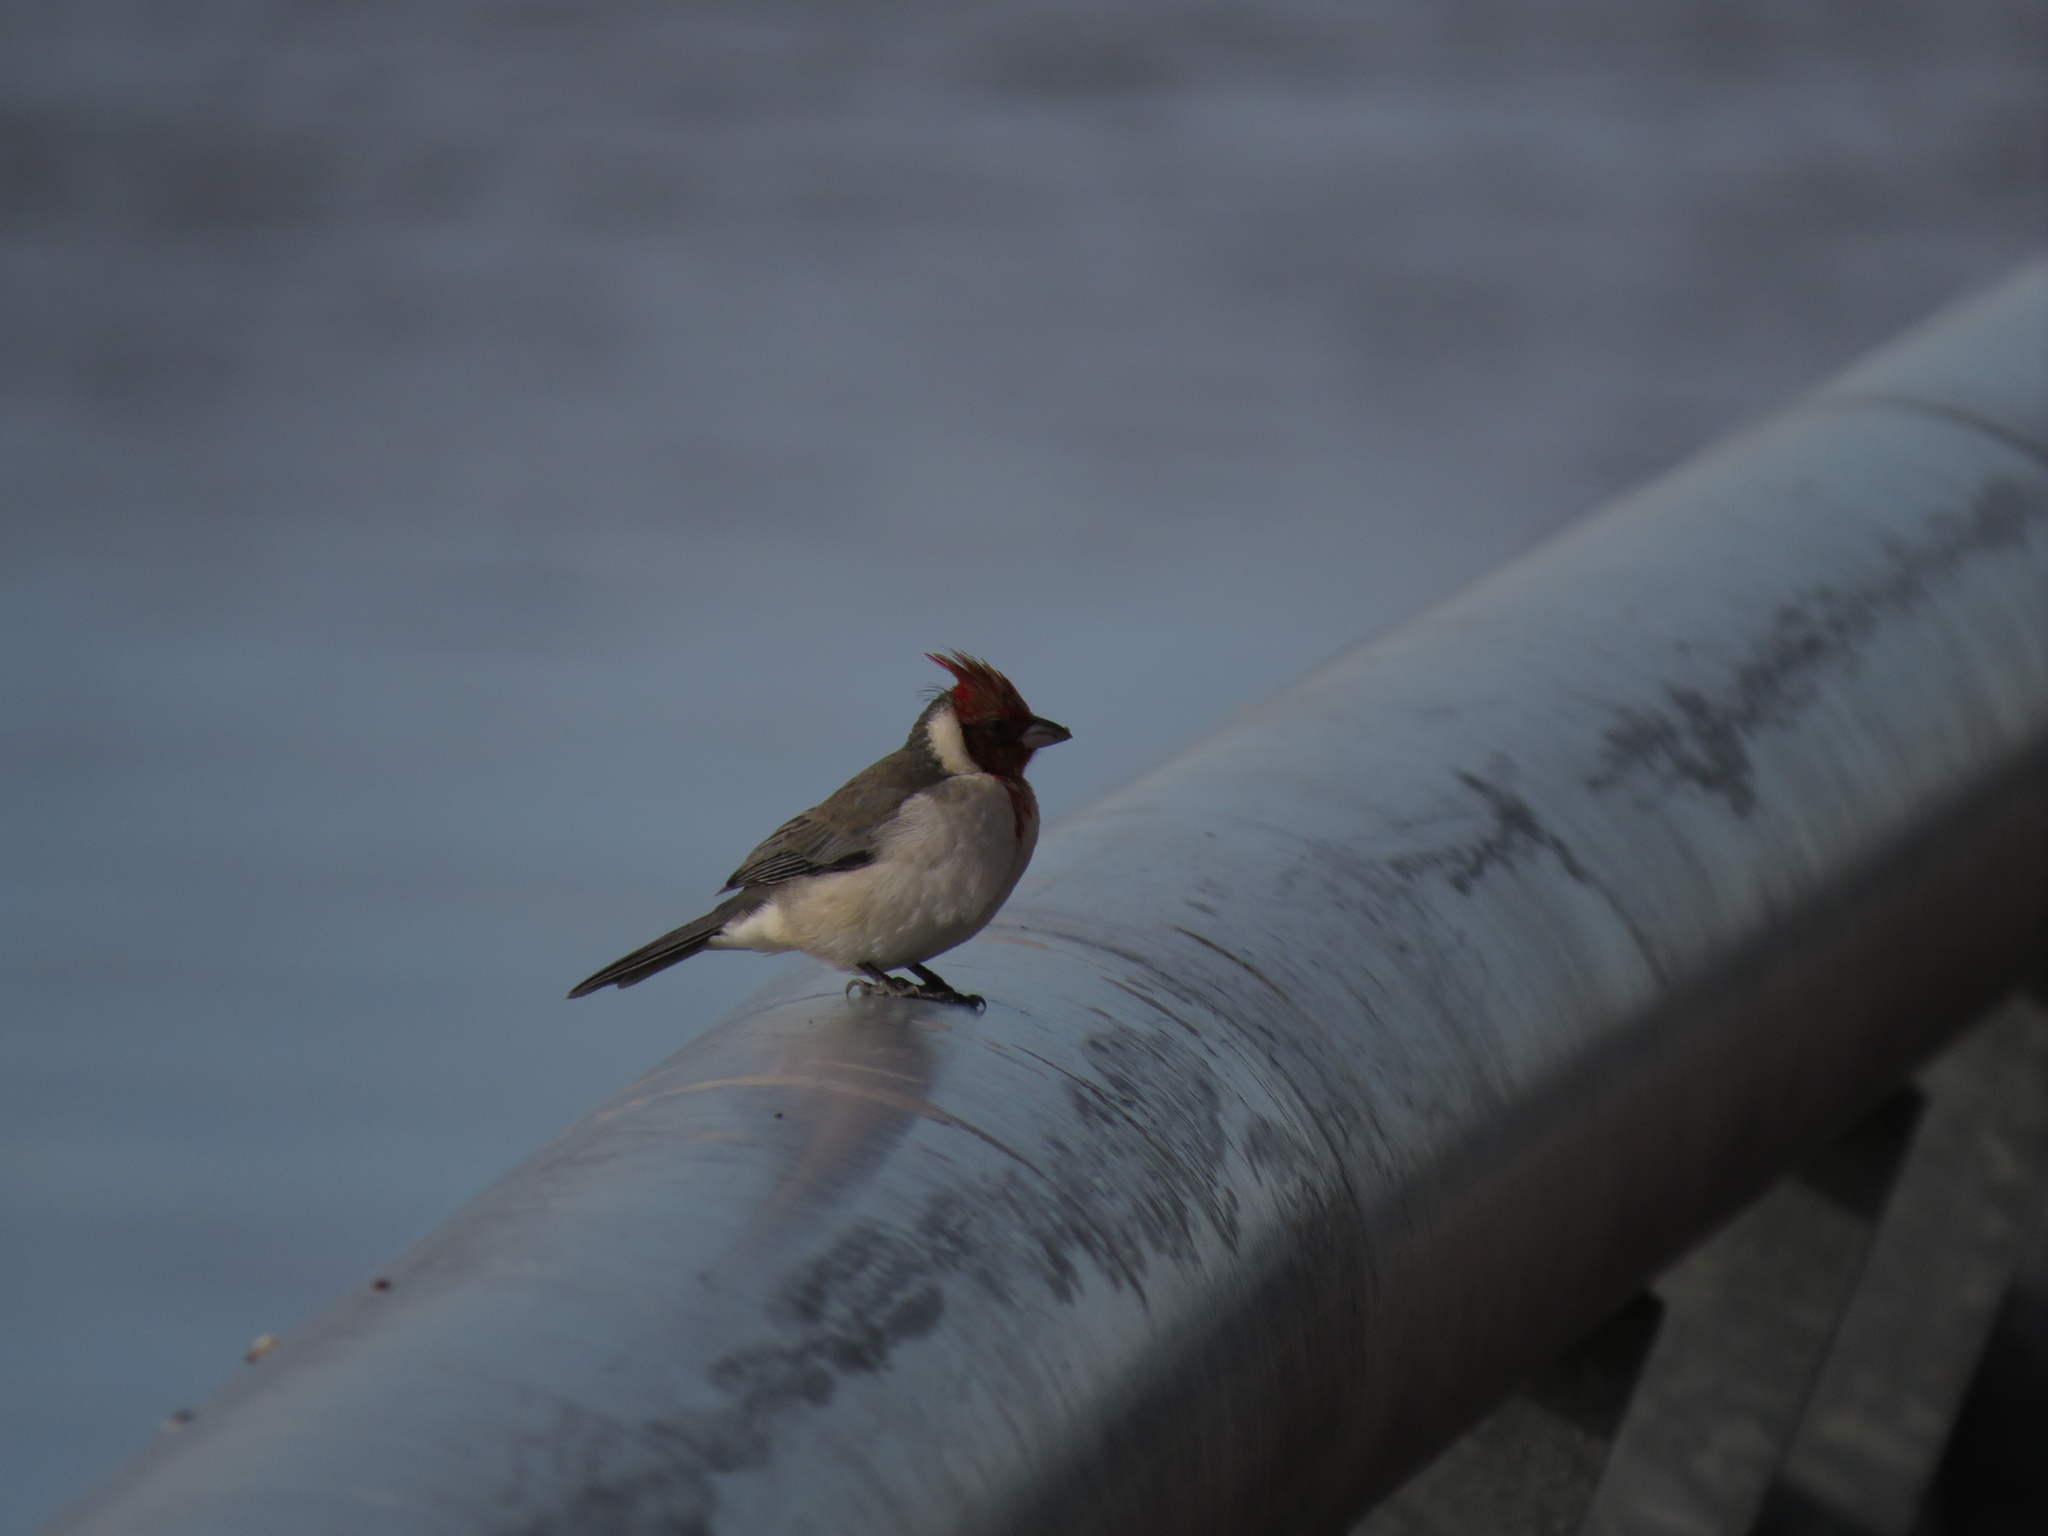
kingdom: Animalia
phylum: Chordata
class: Aves
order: Passeriformes
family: Thraupidae
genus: Paroaria
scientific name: Paroaria coronata
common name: Red-crested cardinal
